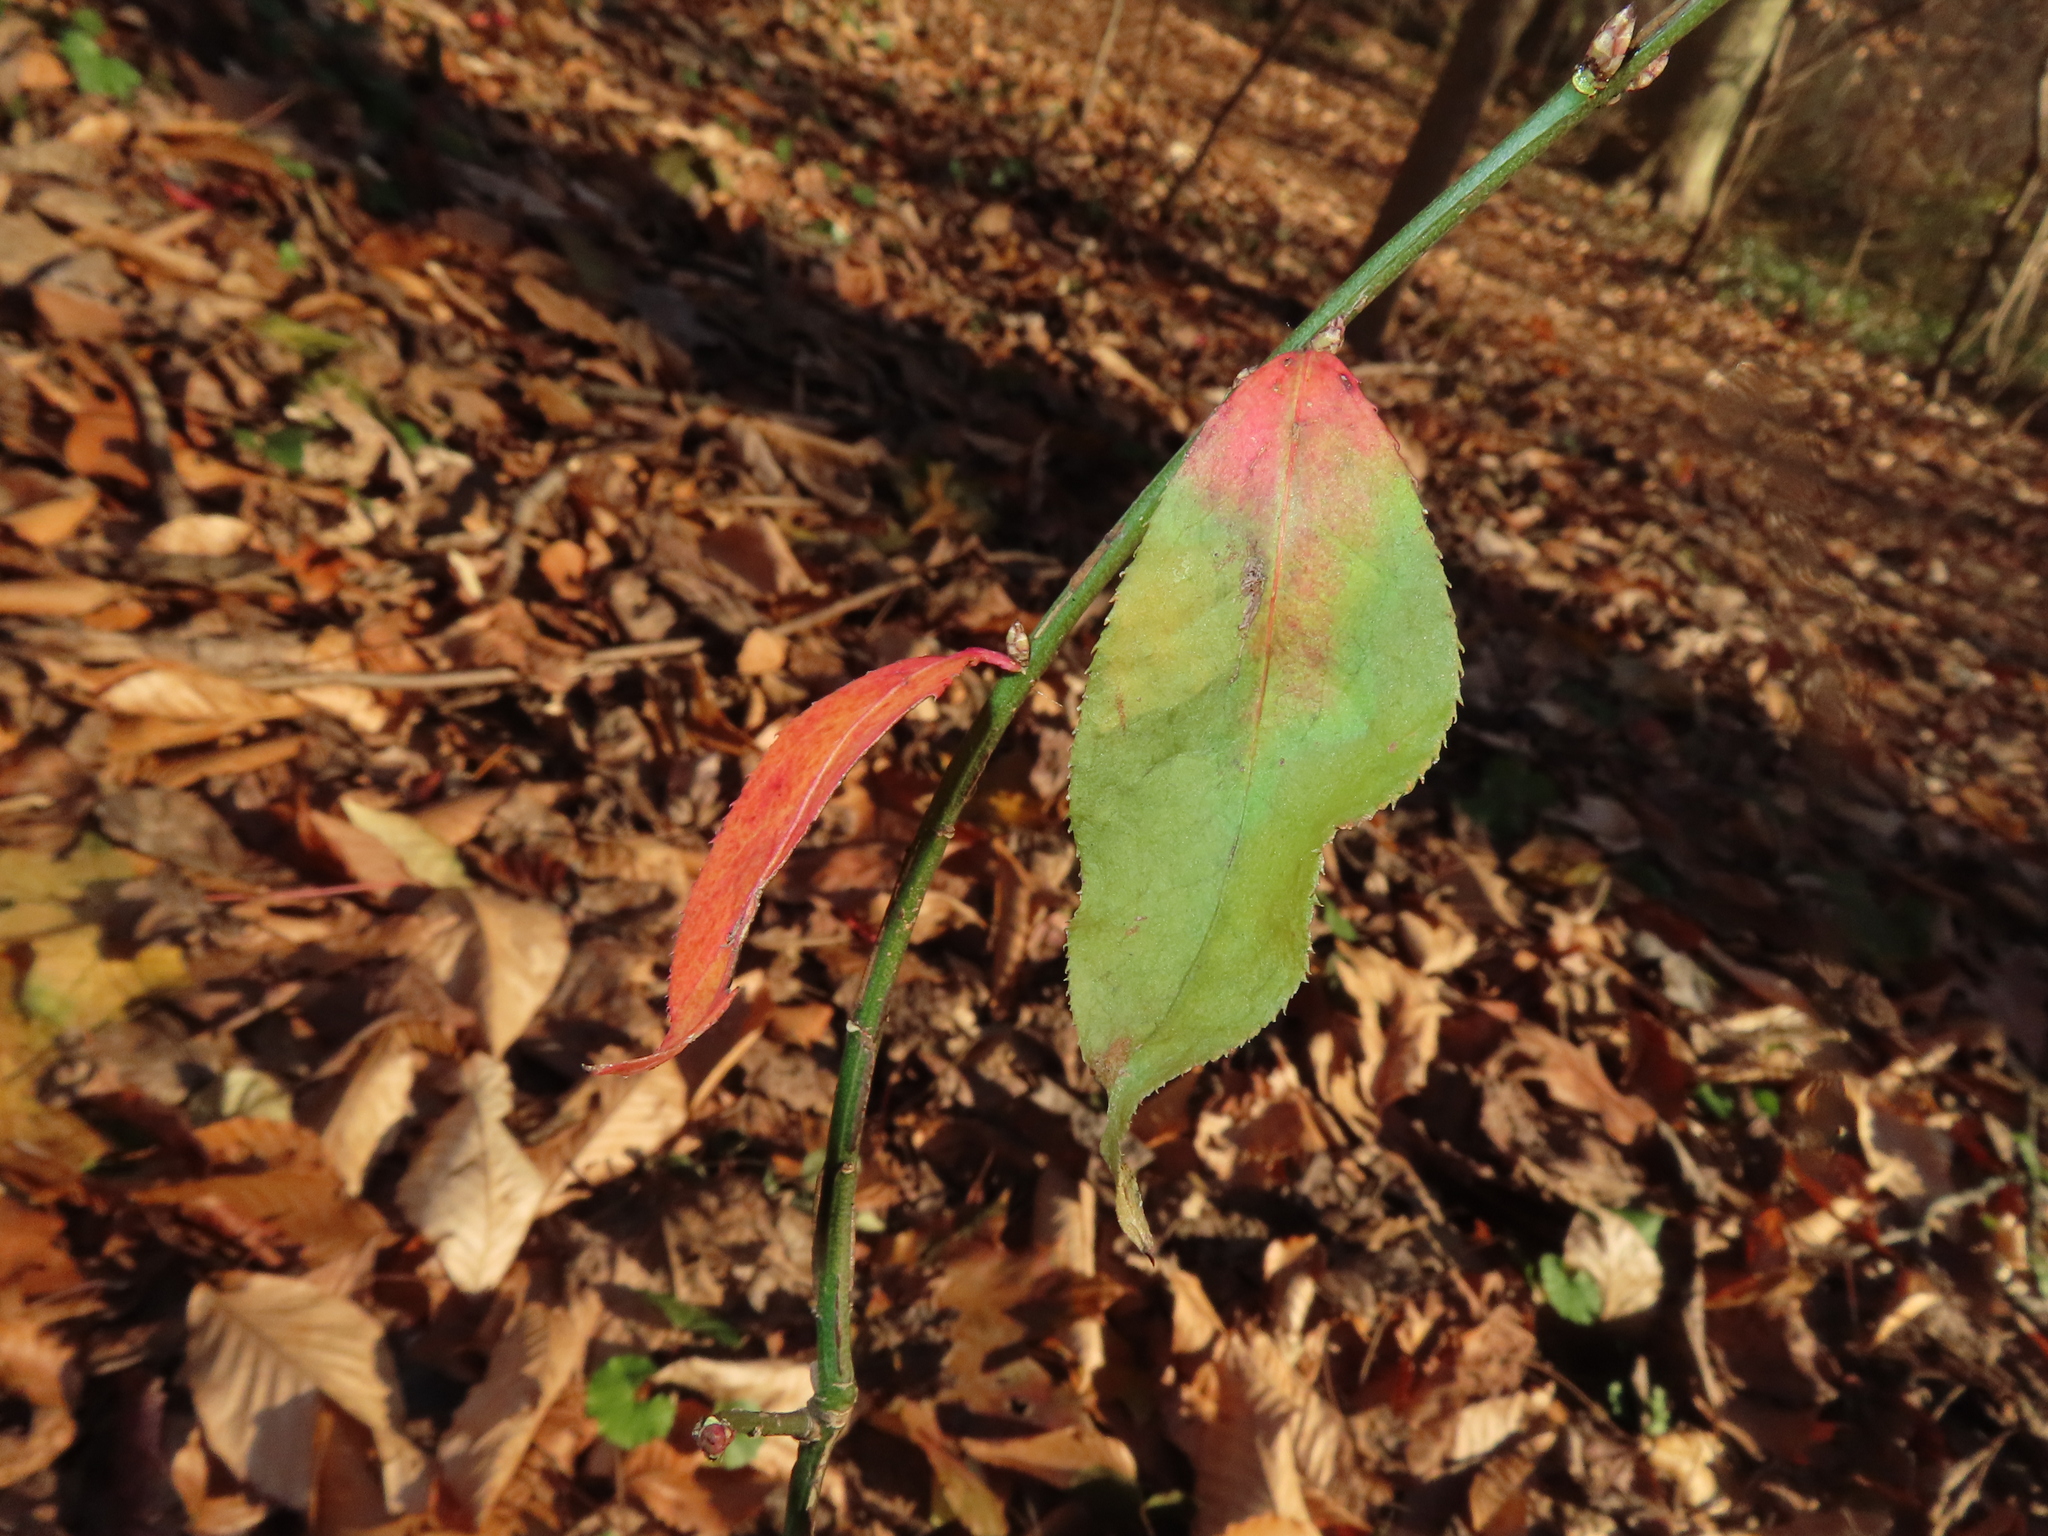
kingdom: Plantae
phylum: Tracheophyta
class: Magnoliopsida
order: Celastrales
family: Celastraceae
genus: Euonymus
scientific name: Euonymus alatus
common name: Winged euonymus
